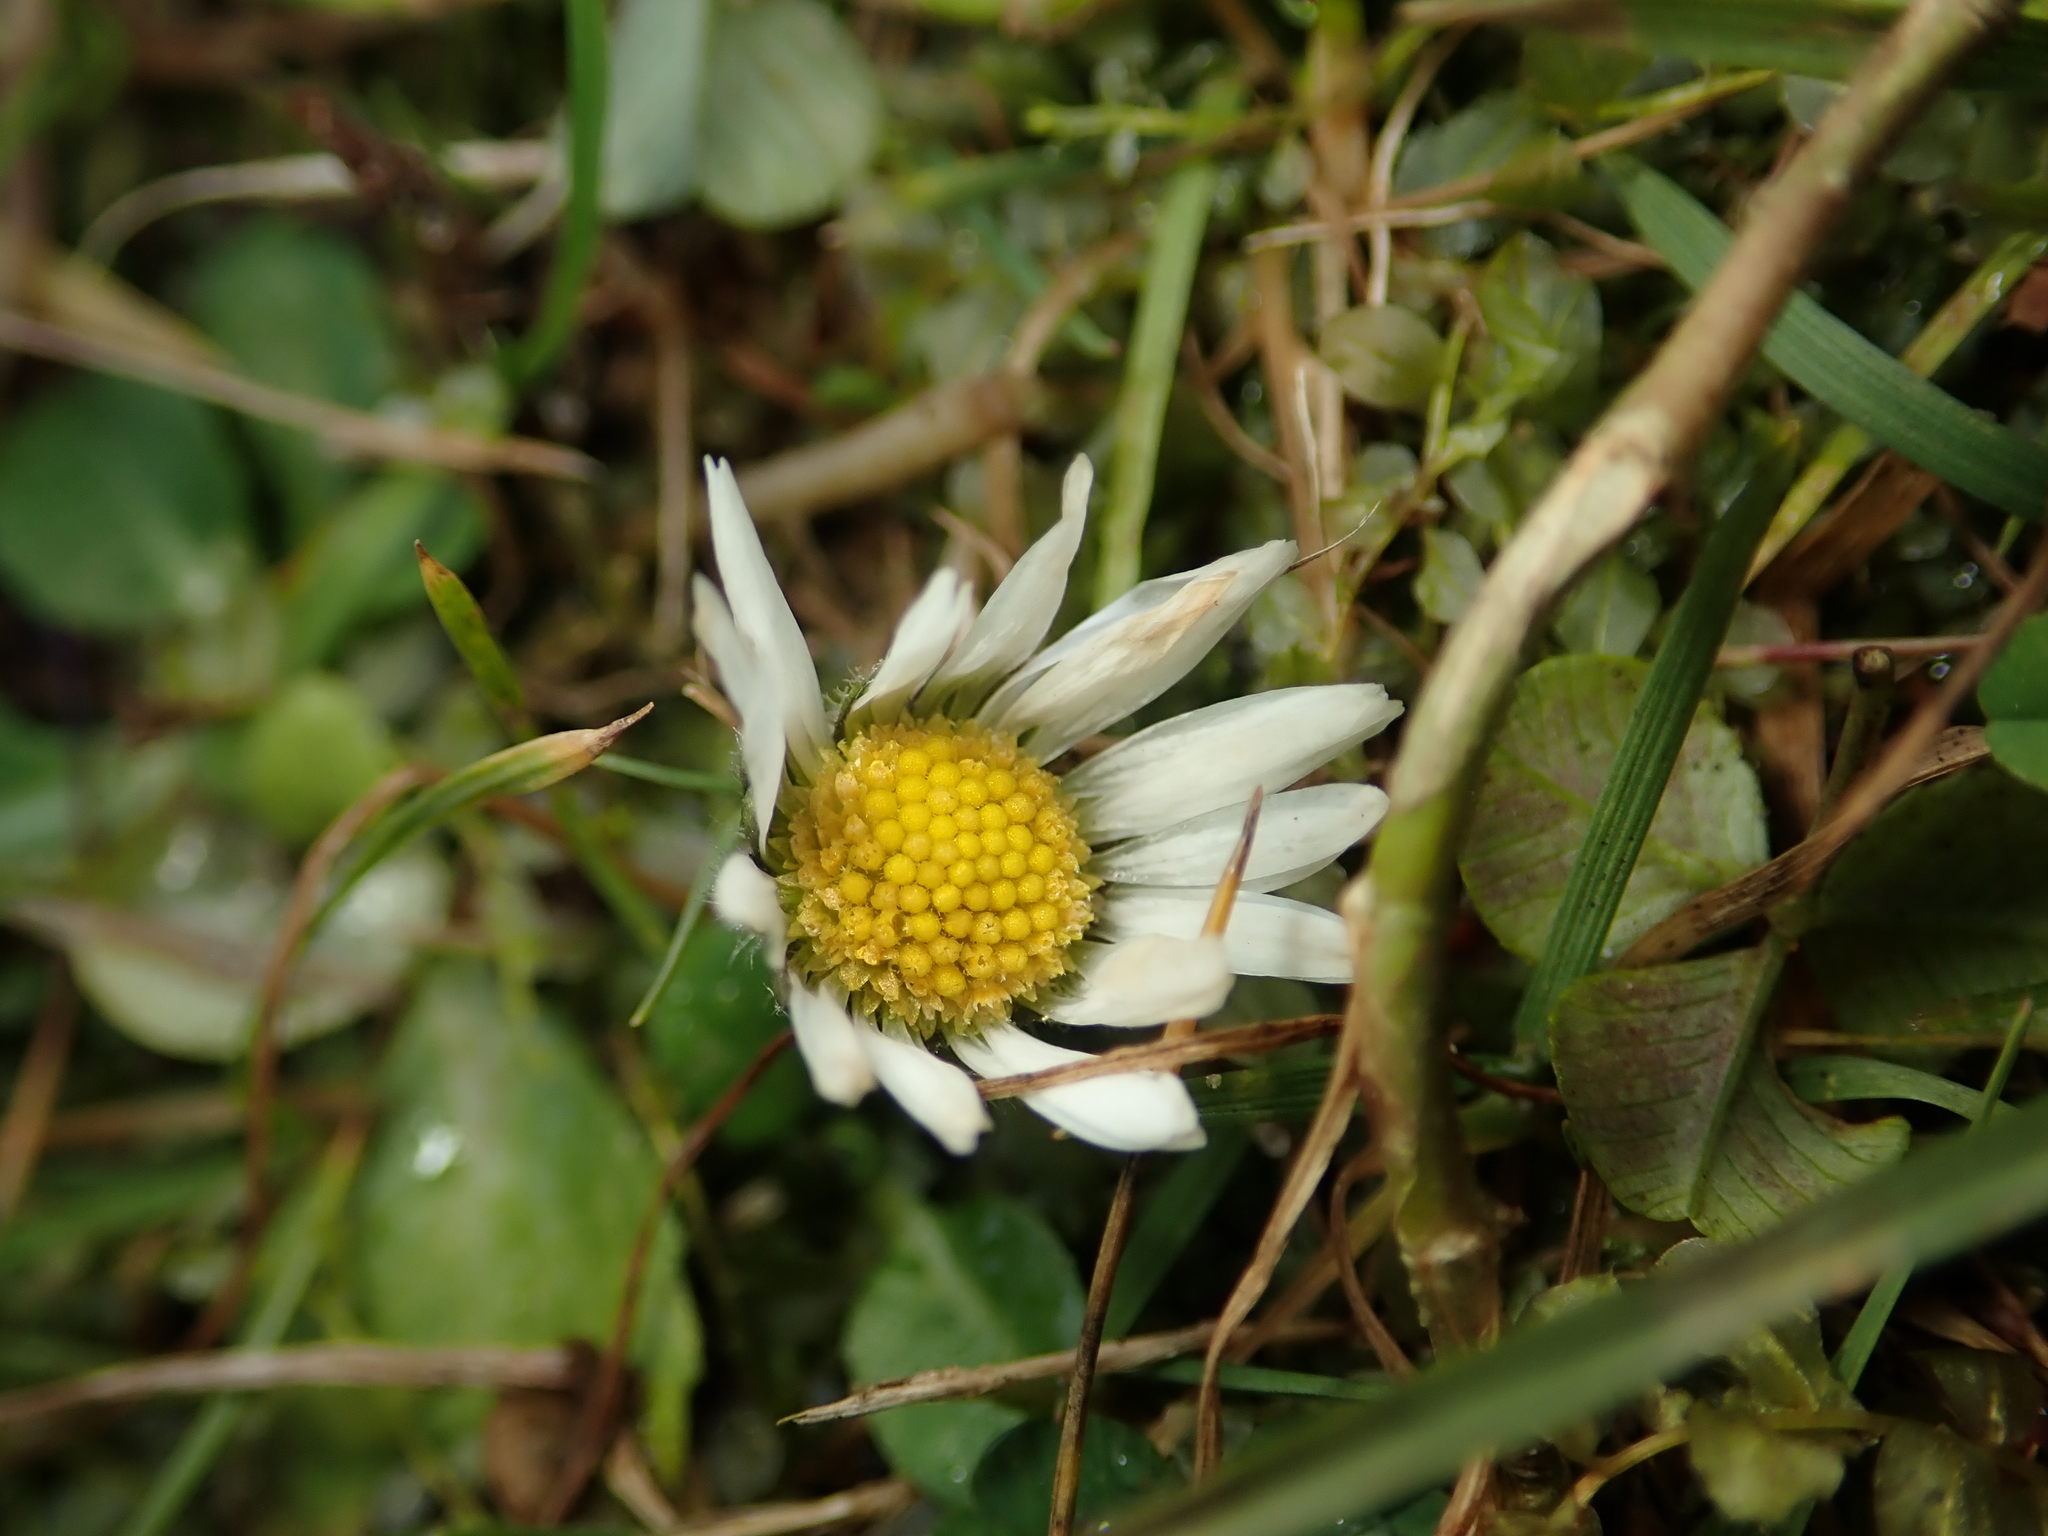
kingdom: Plantae
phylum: Tracheophyta
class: Magnoliopsida
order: Asterales
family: Asteraceae
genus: Bellis
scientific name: Bellis perennis
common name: Lawndaisy
